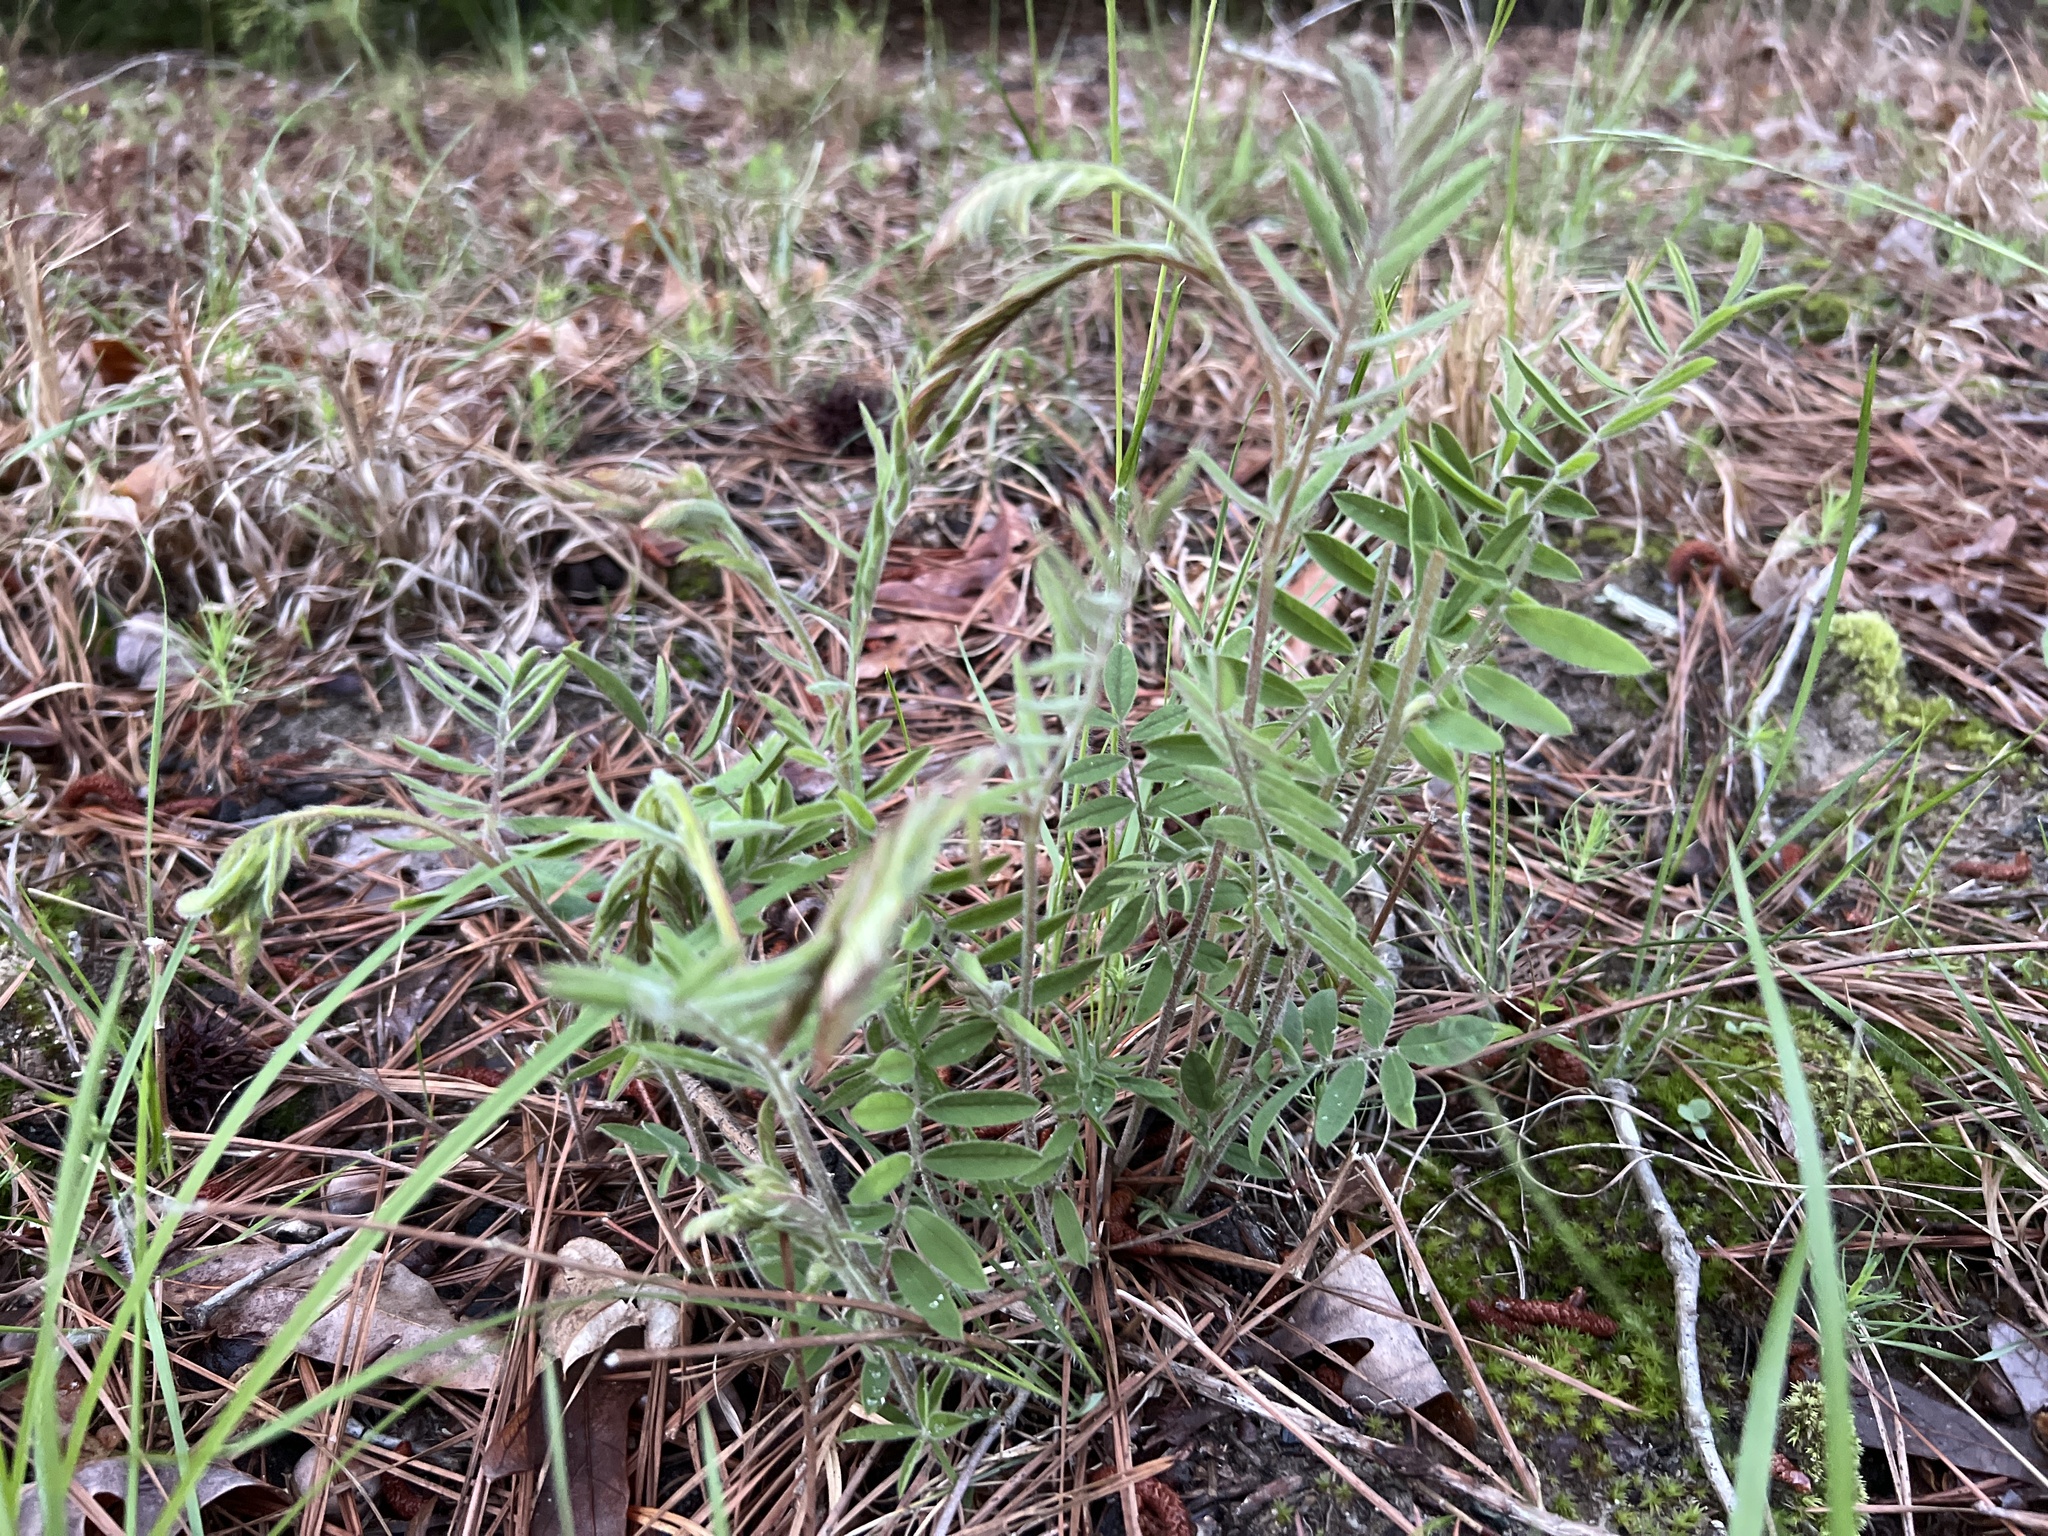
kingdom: Plantae
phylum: Tracheophyta
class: Magnoliopsida
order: Fabales
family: Fabaceae
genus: Tephrosia
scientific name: Tephrosia virginiana
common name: Rabbit-pea
